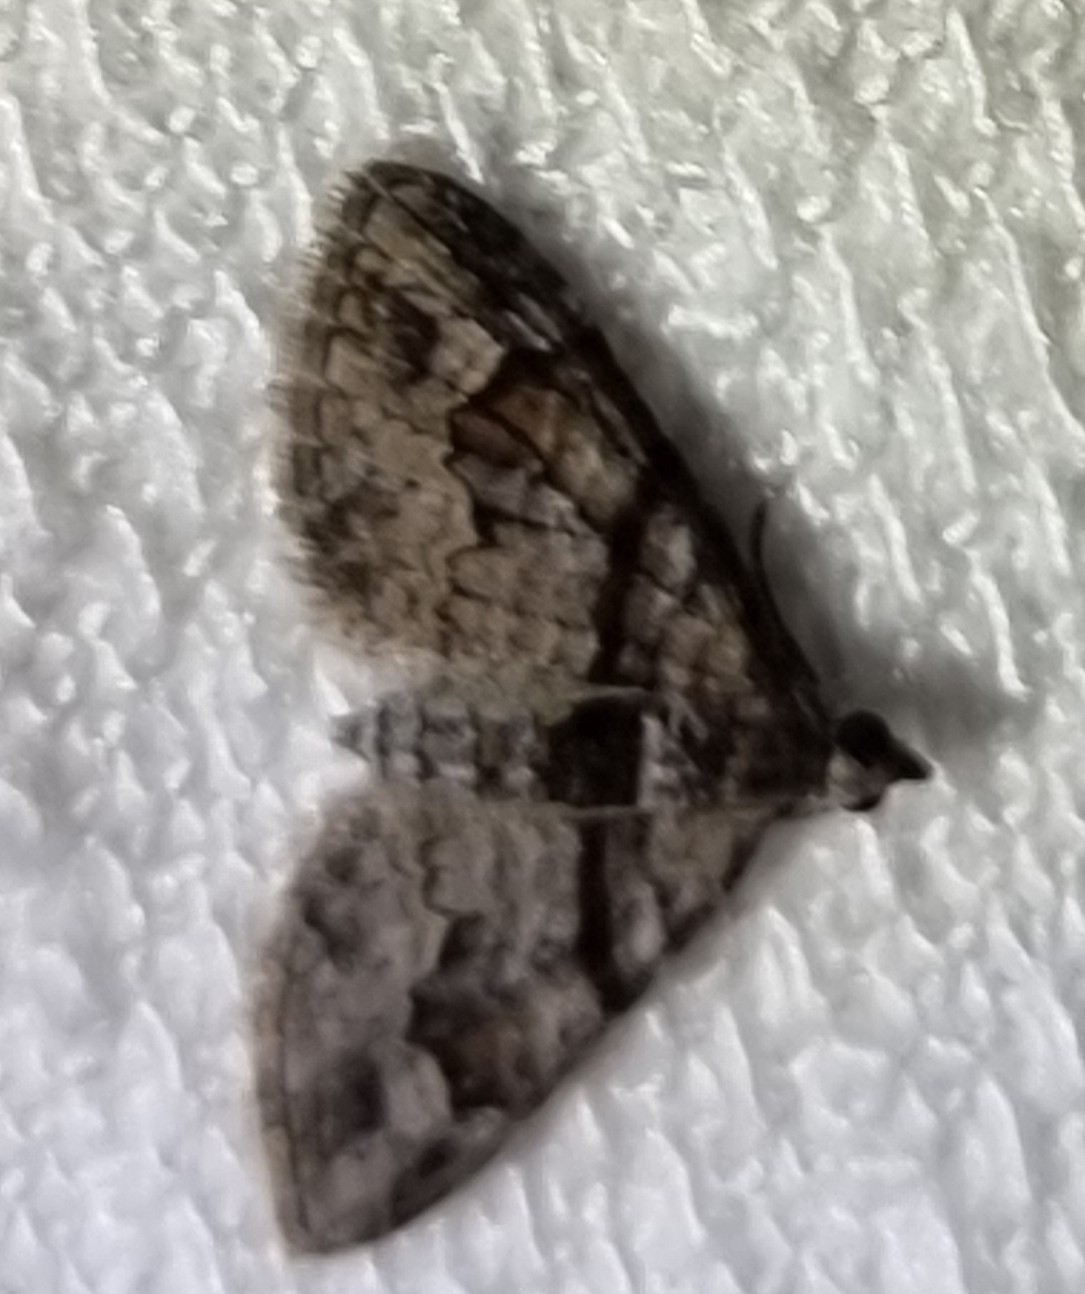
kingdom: Animalia
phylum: Arthropoda
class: Insecta
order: Lepidoptera
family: Geometridae
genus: Phrissogonus
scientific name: Phrissogonus laticostata
